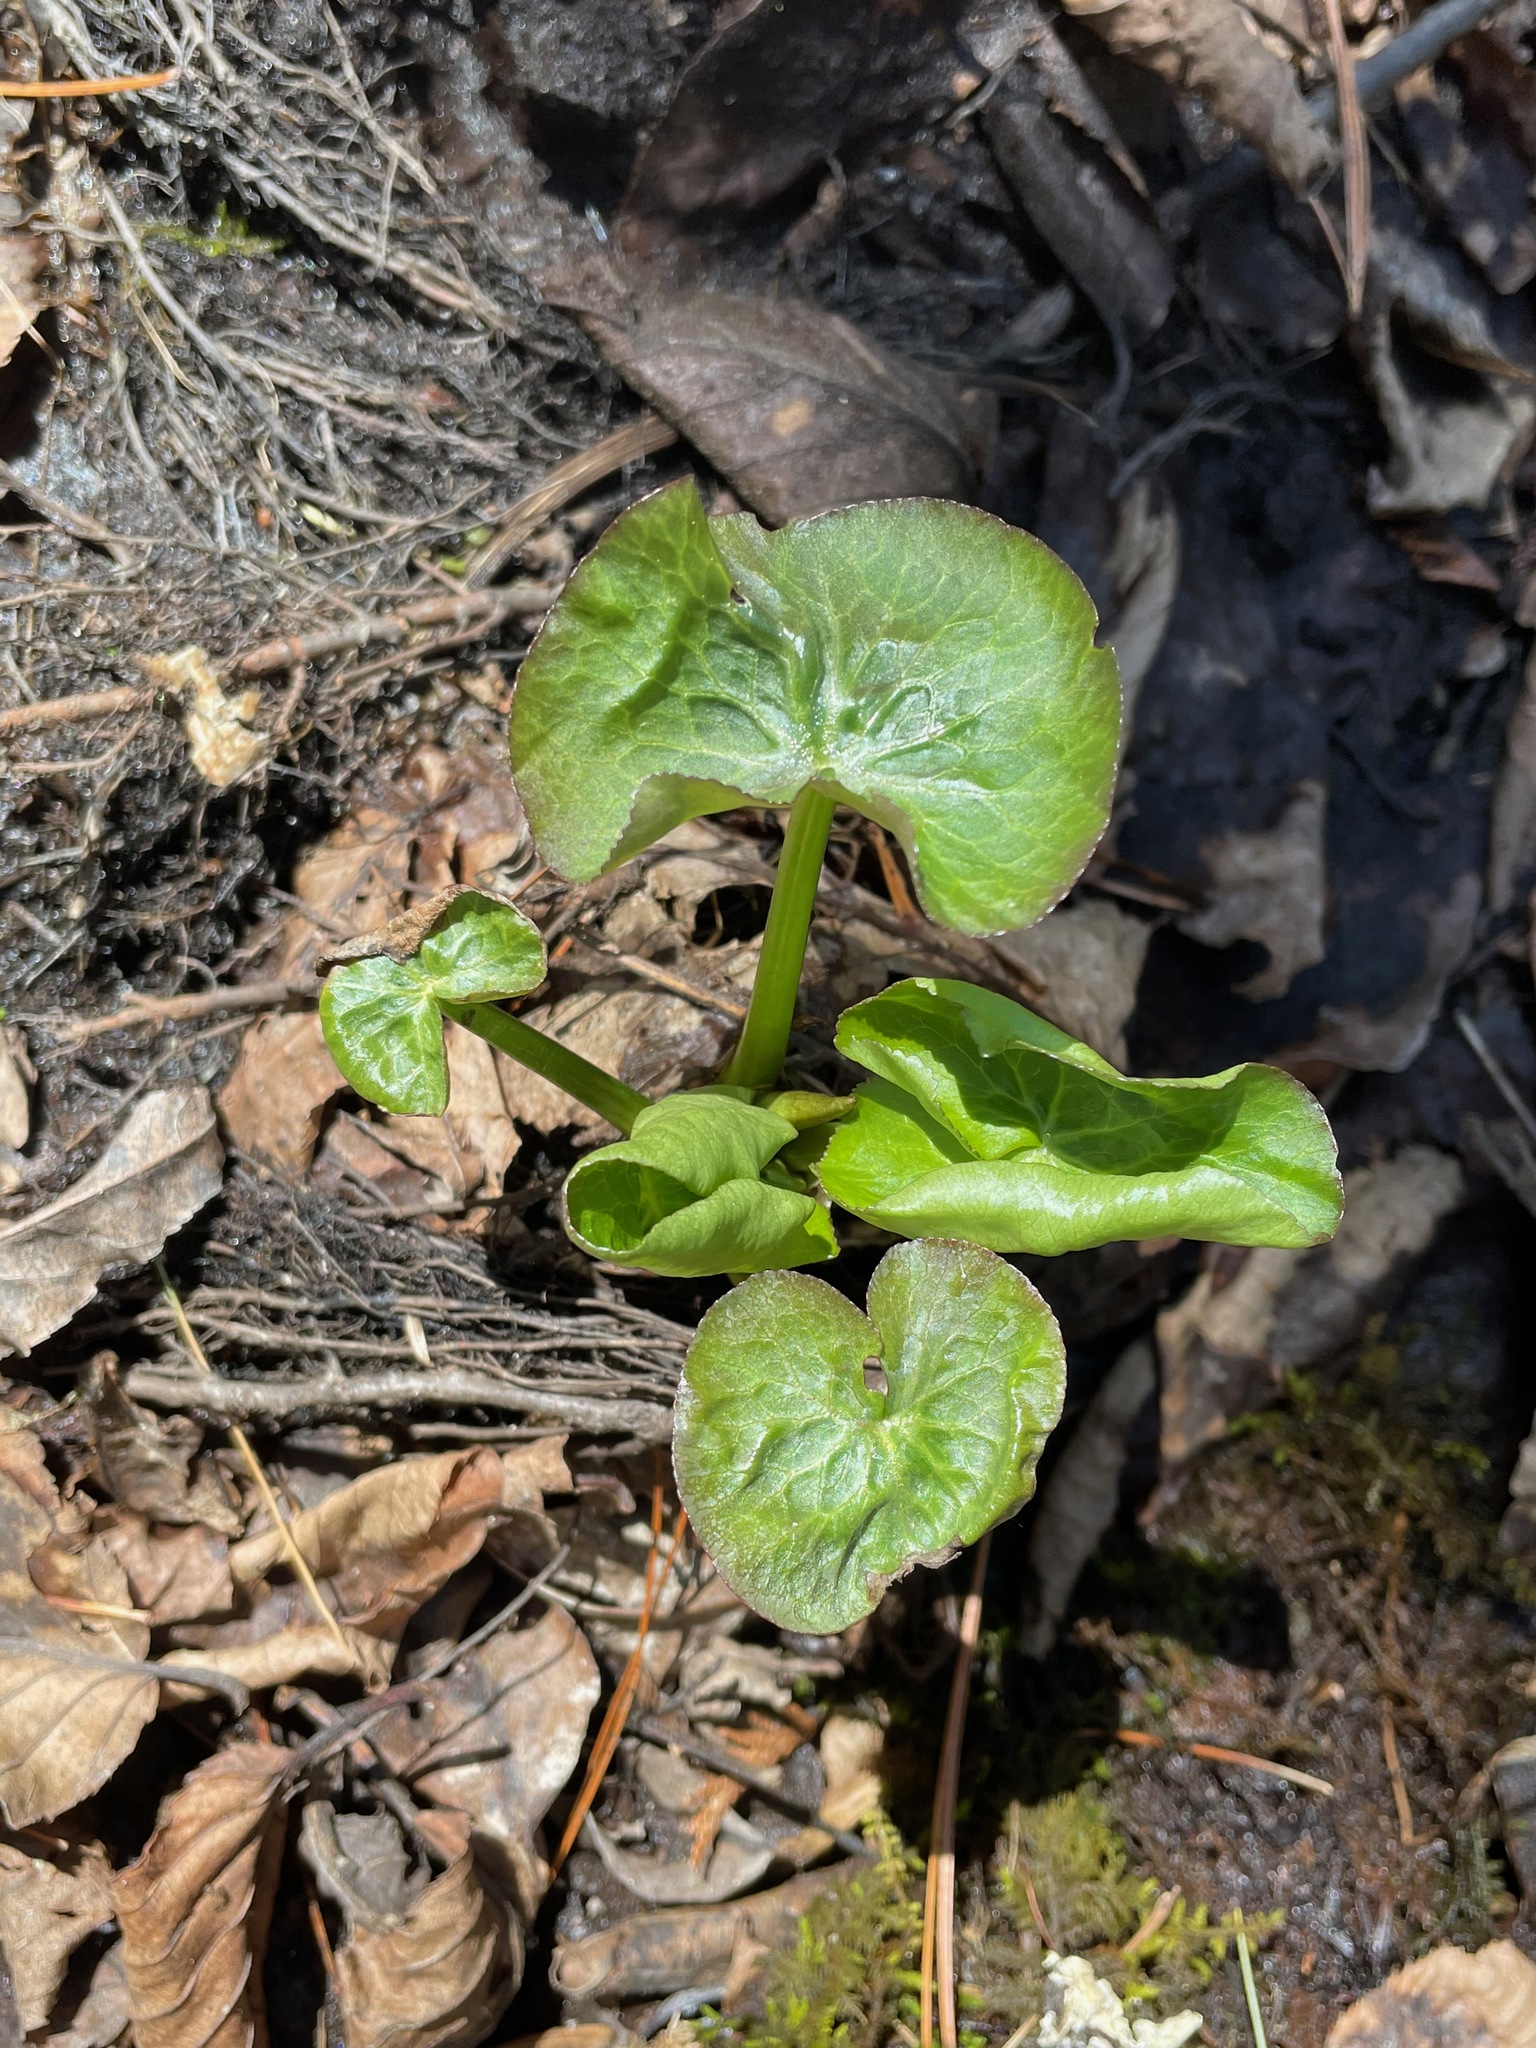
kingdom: Plantae
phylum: Tracheophyta
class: Magnoliopsida
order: Ranunculales
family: Ranunculaceae
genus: Caltha
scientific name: Caltha palustris
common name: Marsh marigold
